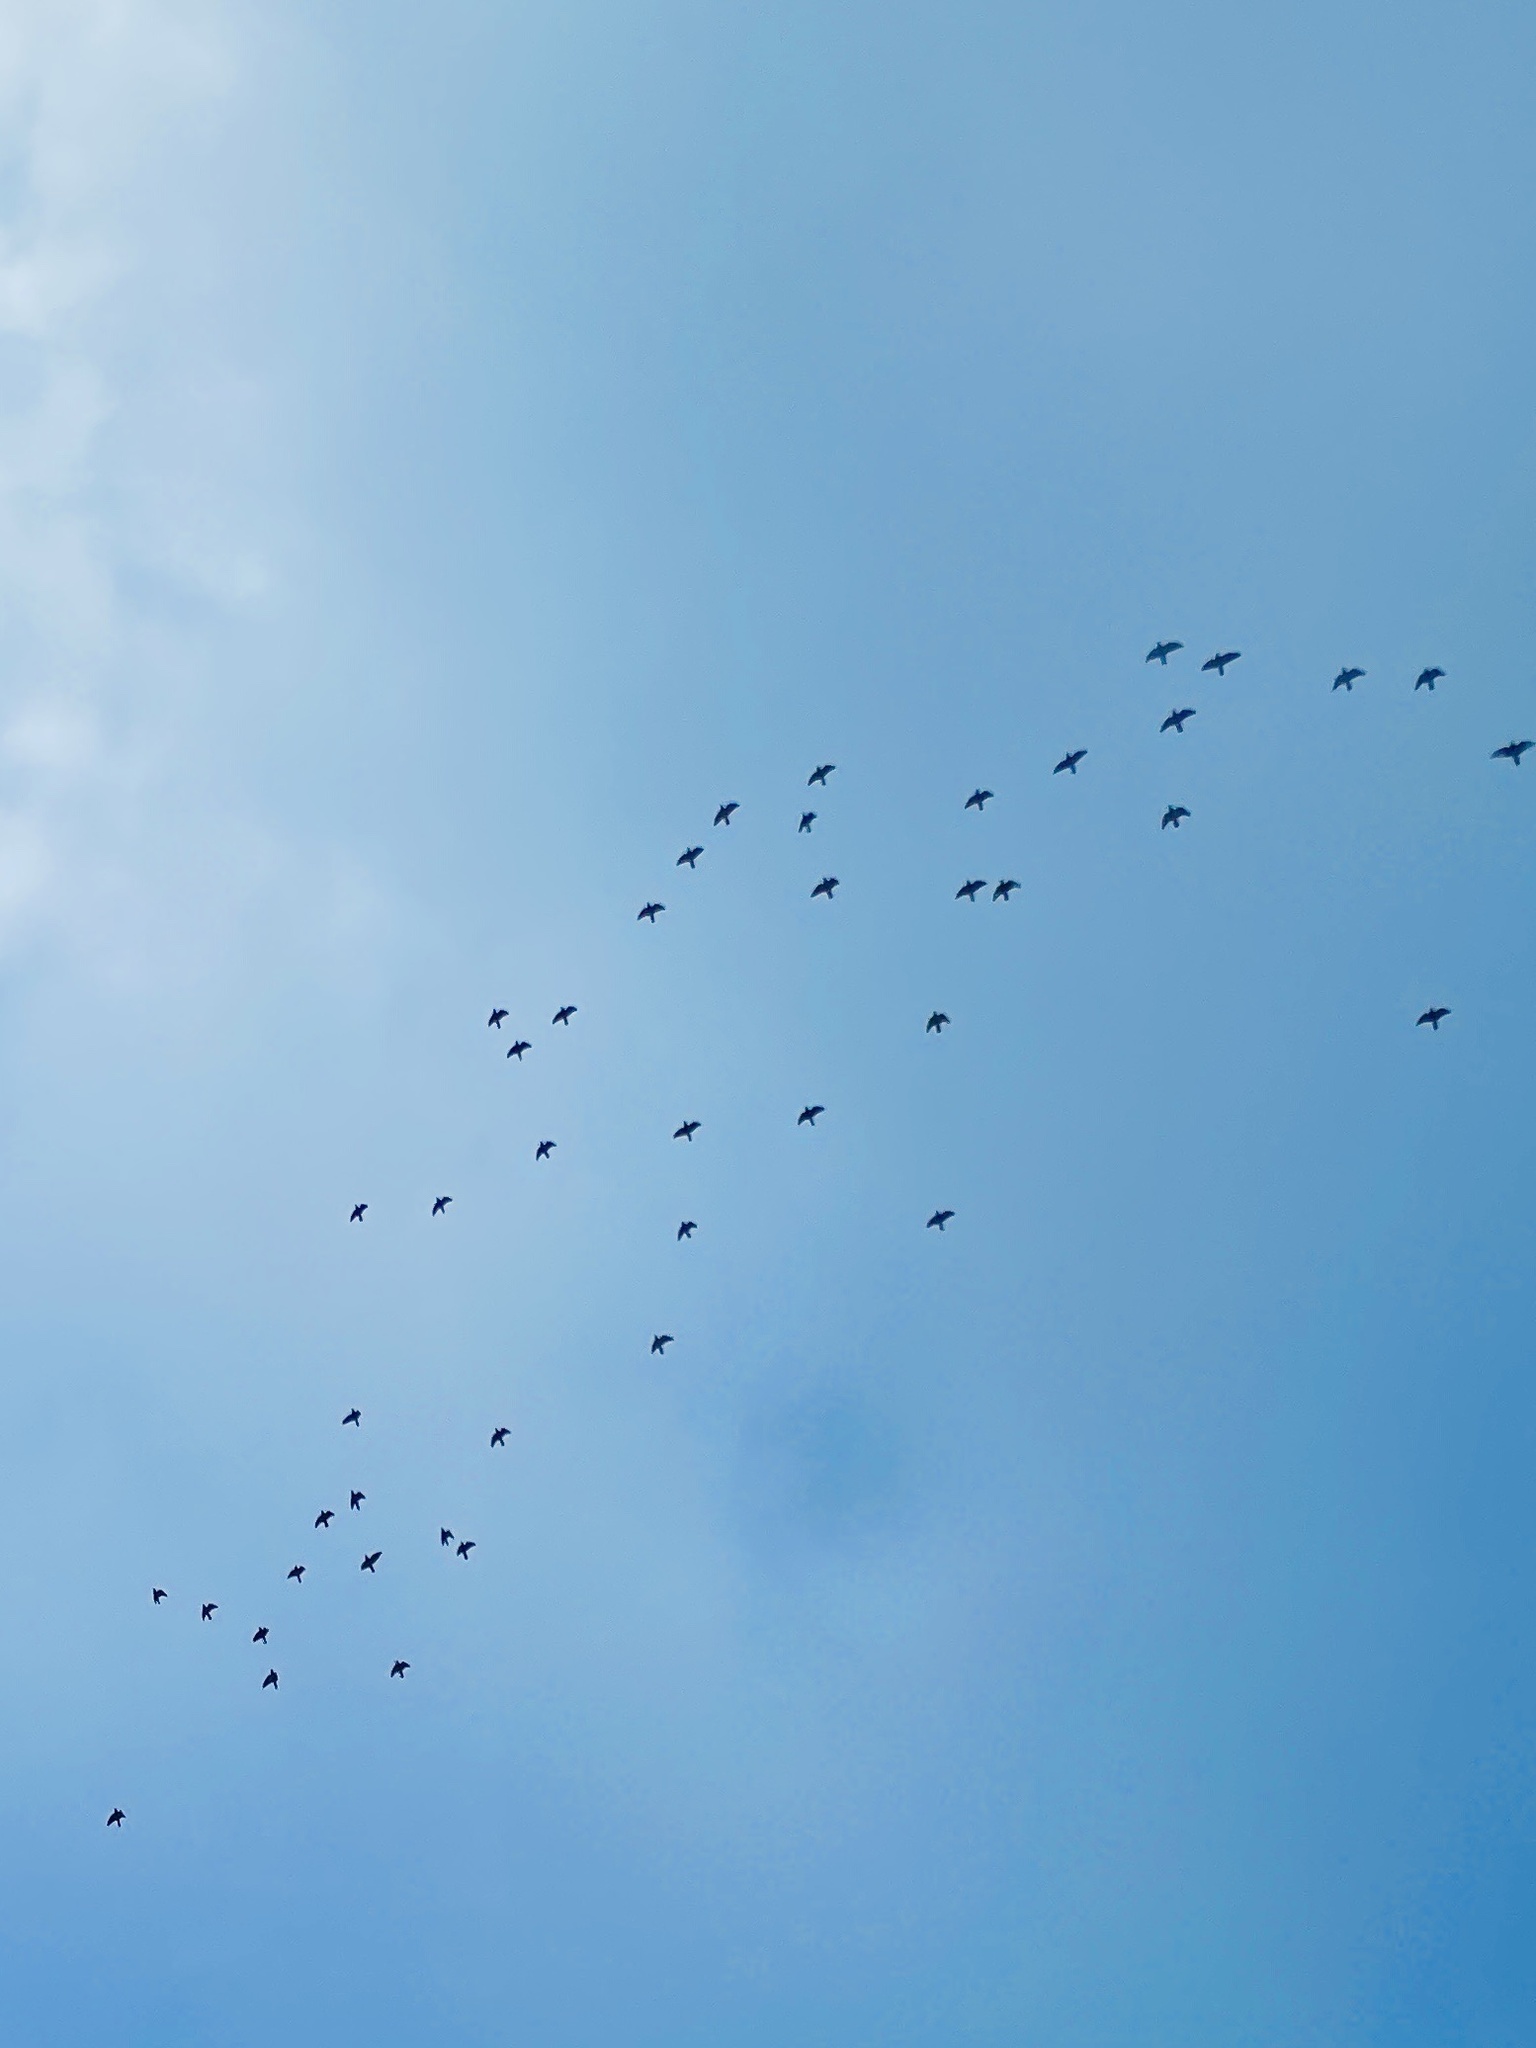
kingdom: Animalia
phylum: Chordata
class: Aves
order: Passeriformes
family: Sturnidae
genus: Sturnus
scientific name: Sturnus vulgaris
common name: Common starling
